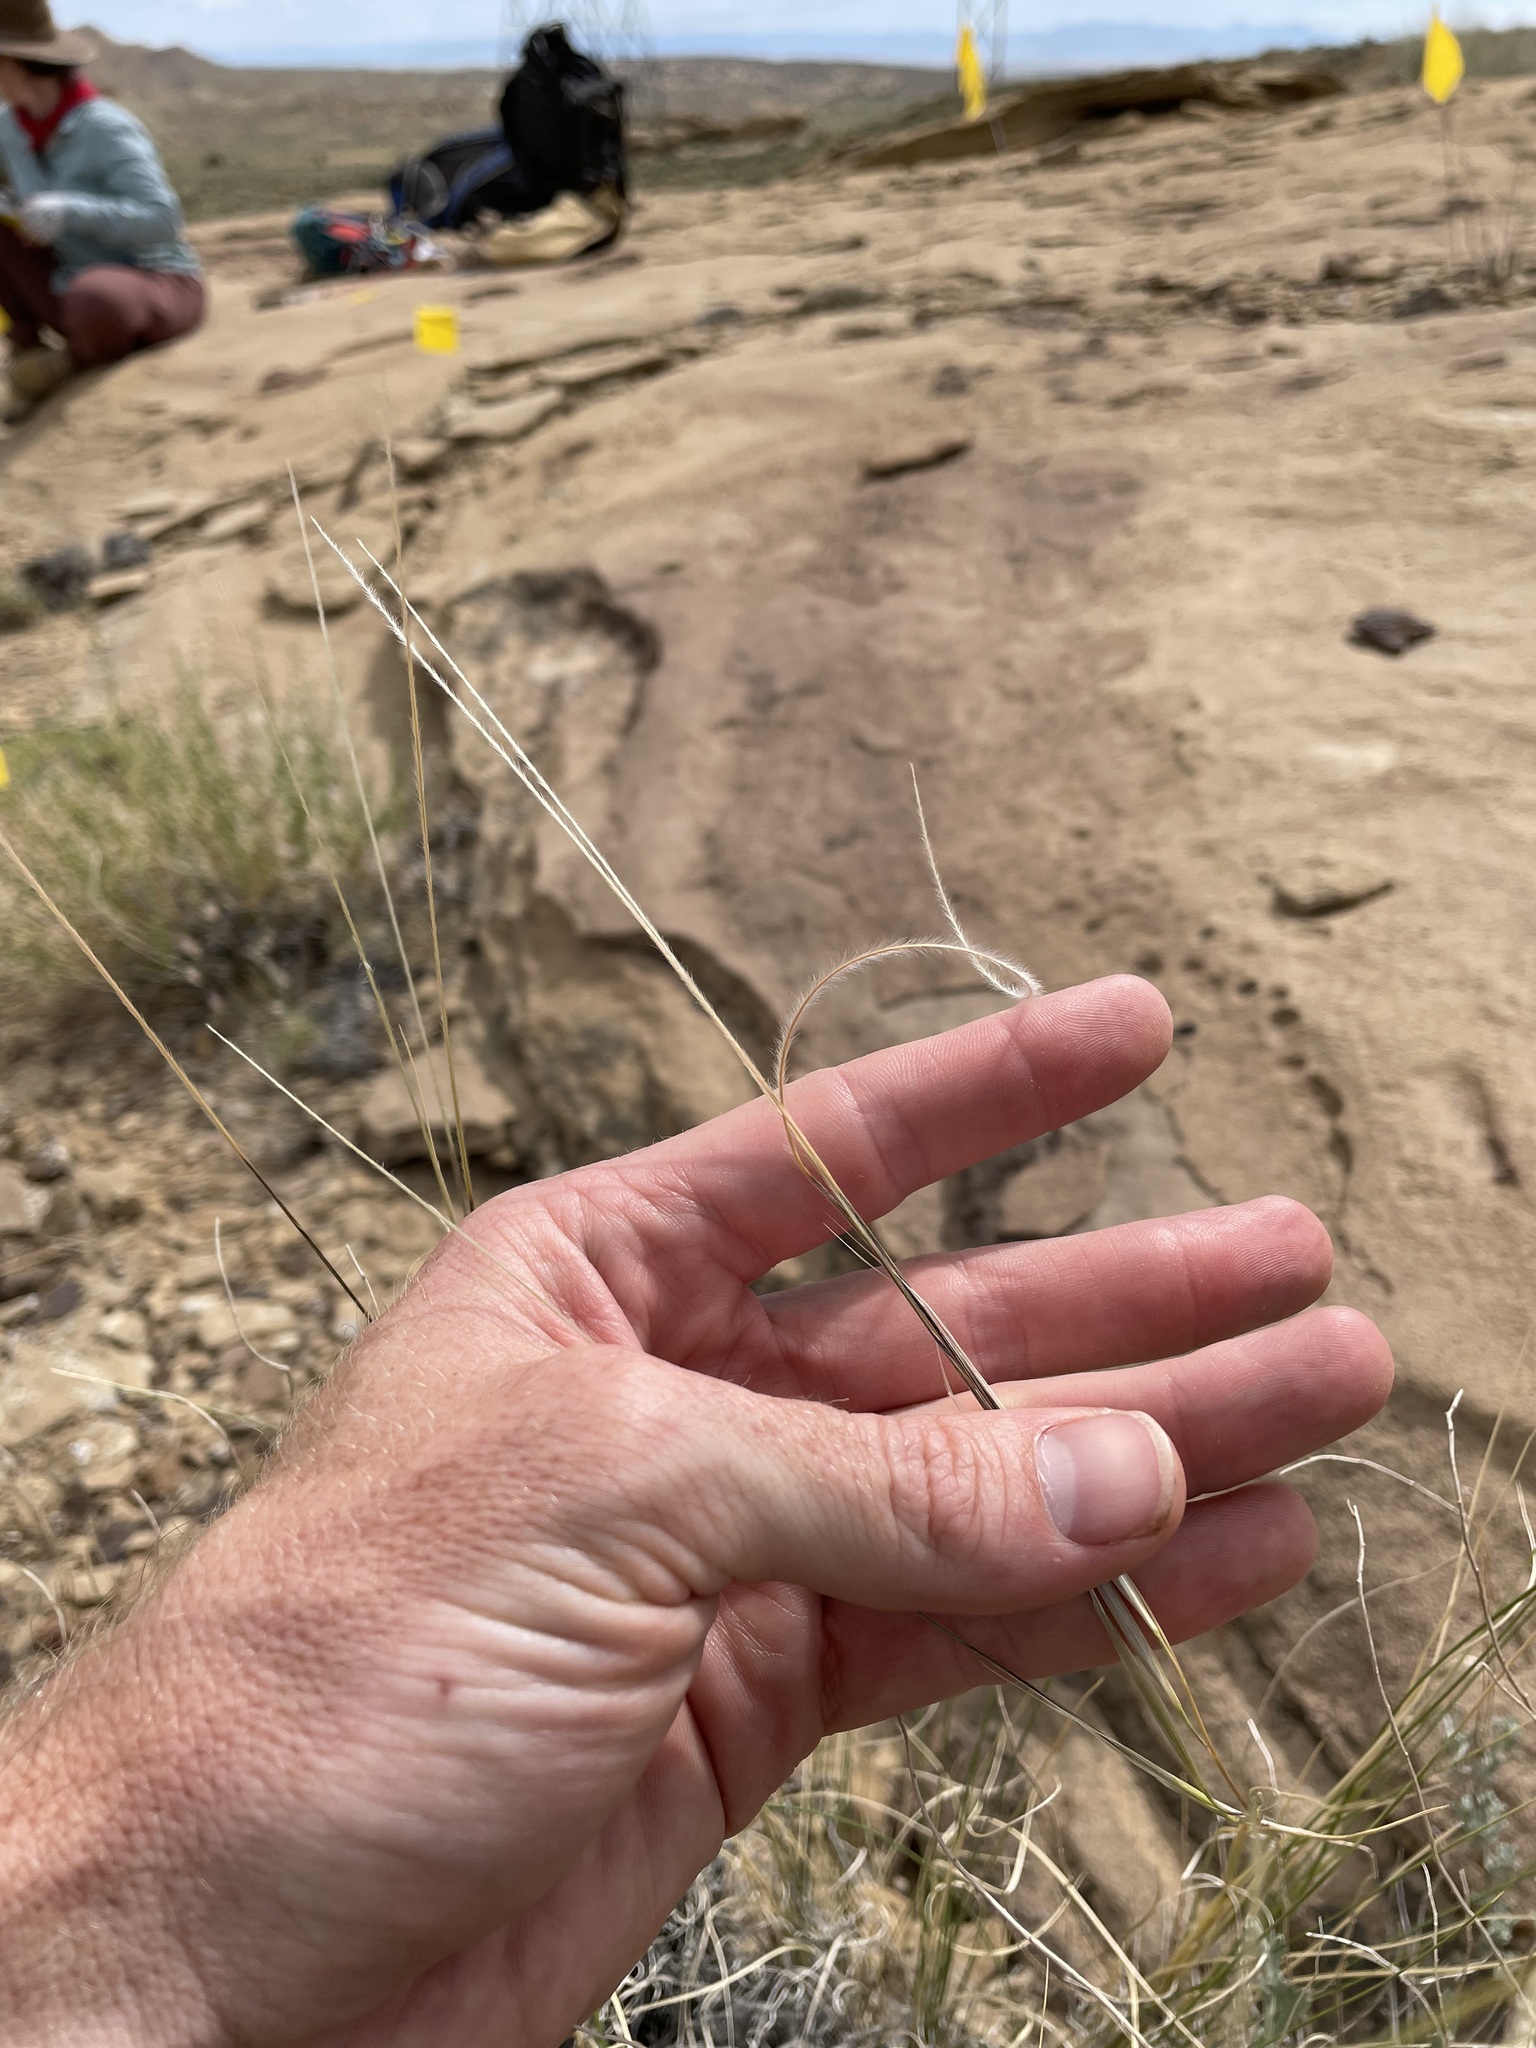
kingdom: Plantae
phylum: Tracheophyta
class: Liliopsida
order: Poales
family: Poaceae
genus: Hesperostipa
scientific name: Hesperostipa neomexicana
